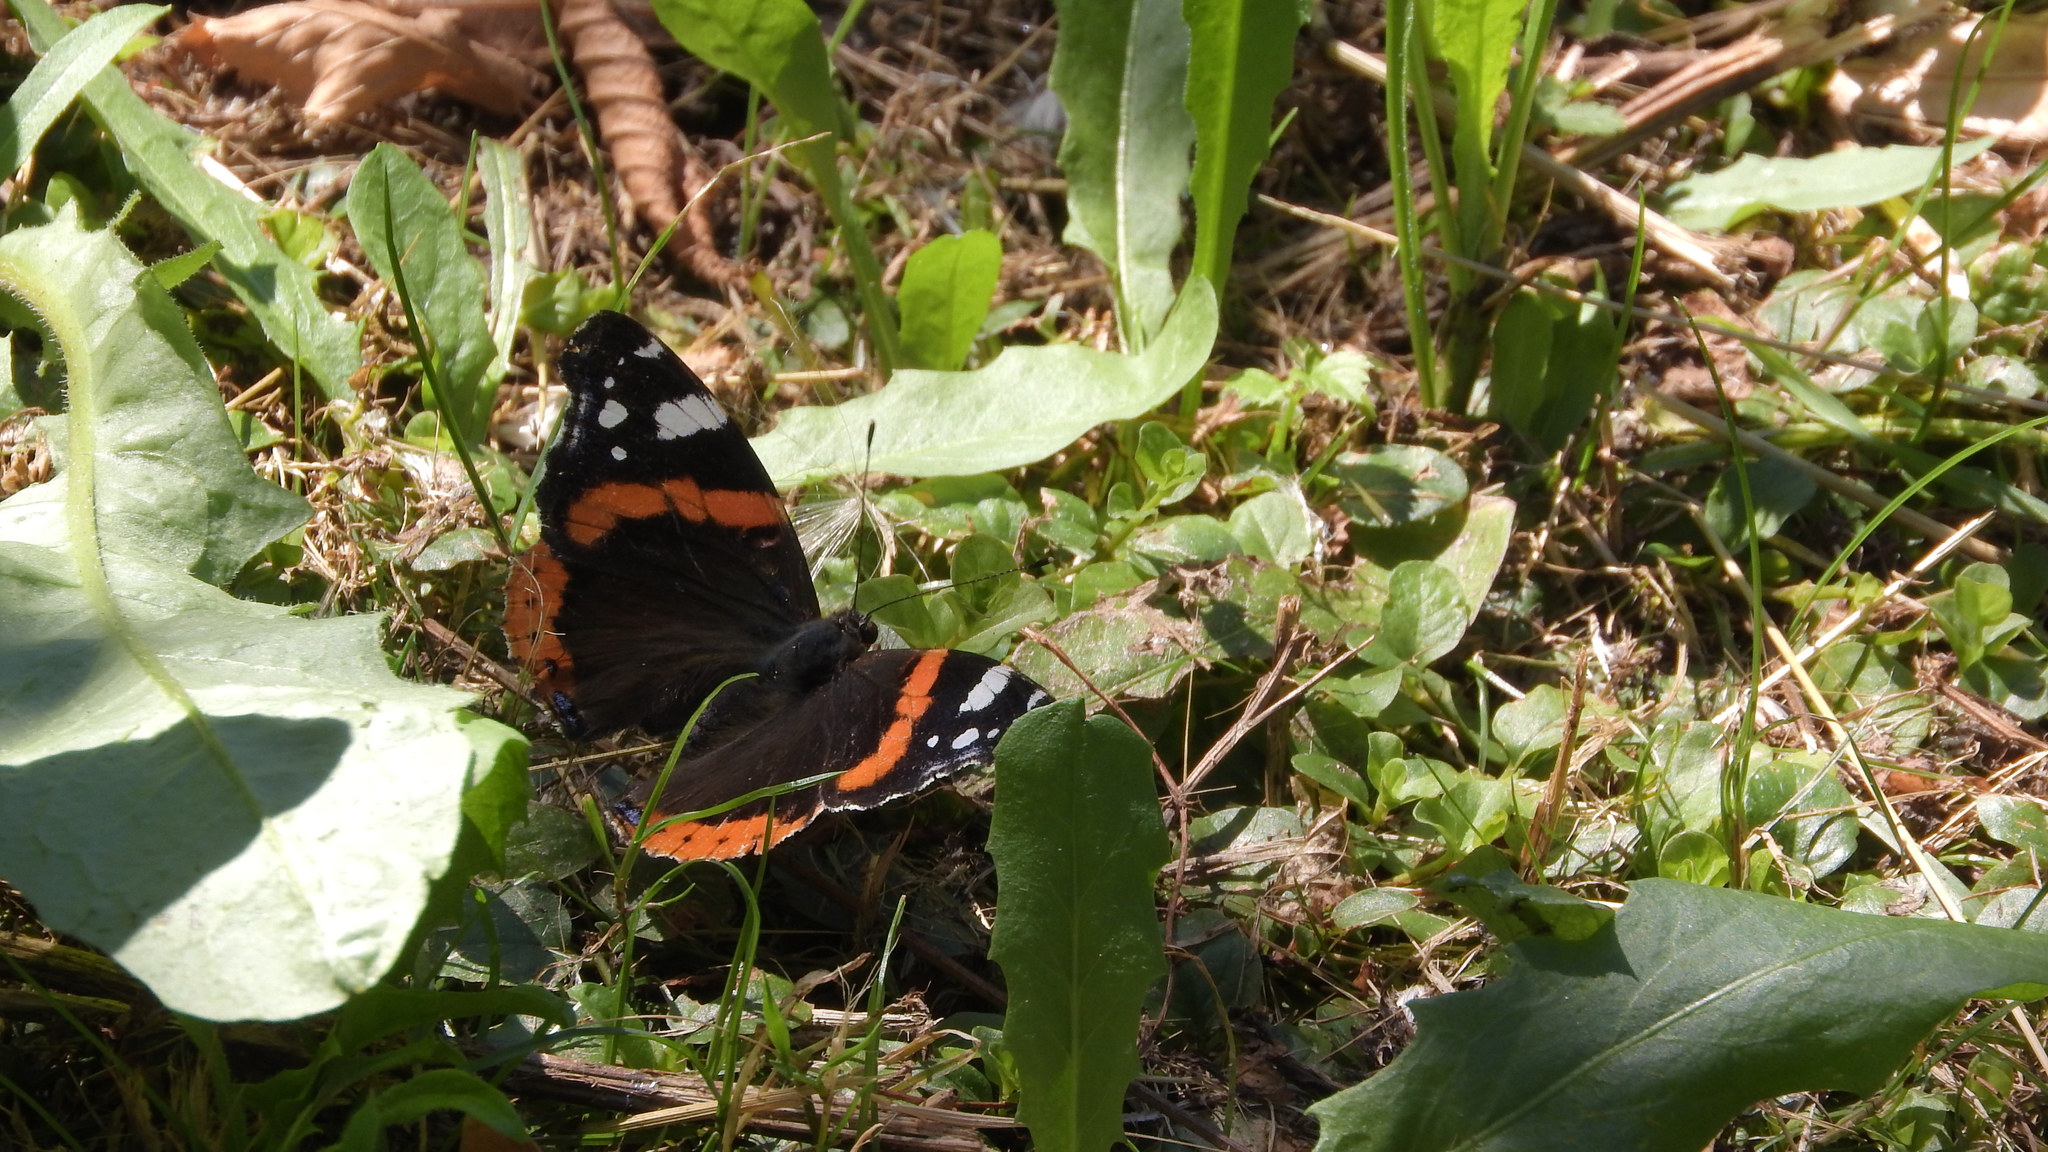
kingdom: Animalia
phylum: Arthropoda
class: Insecta
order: Lepidoptera
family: Nymphalidae
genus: Vanessa
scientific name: Vanessa atalanta
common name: Red admiral
